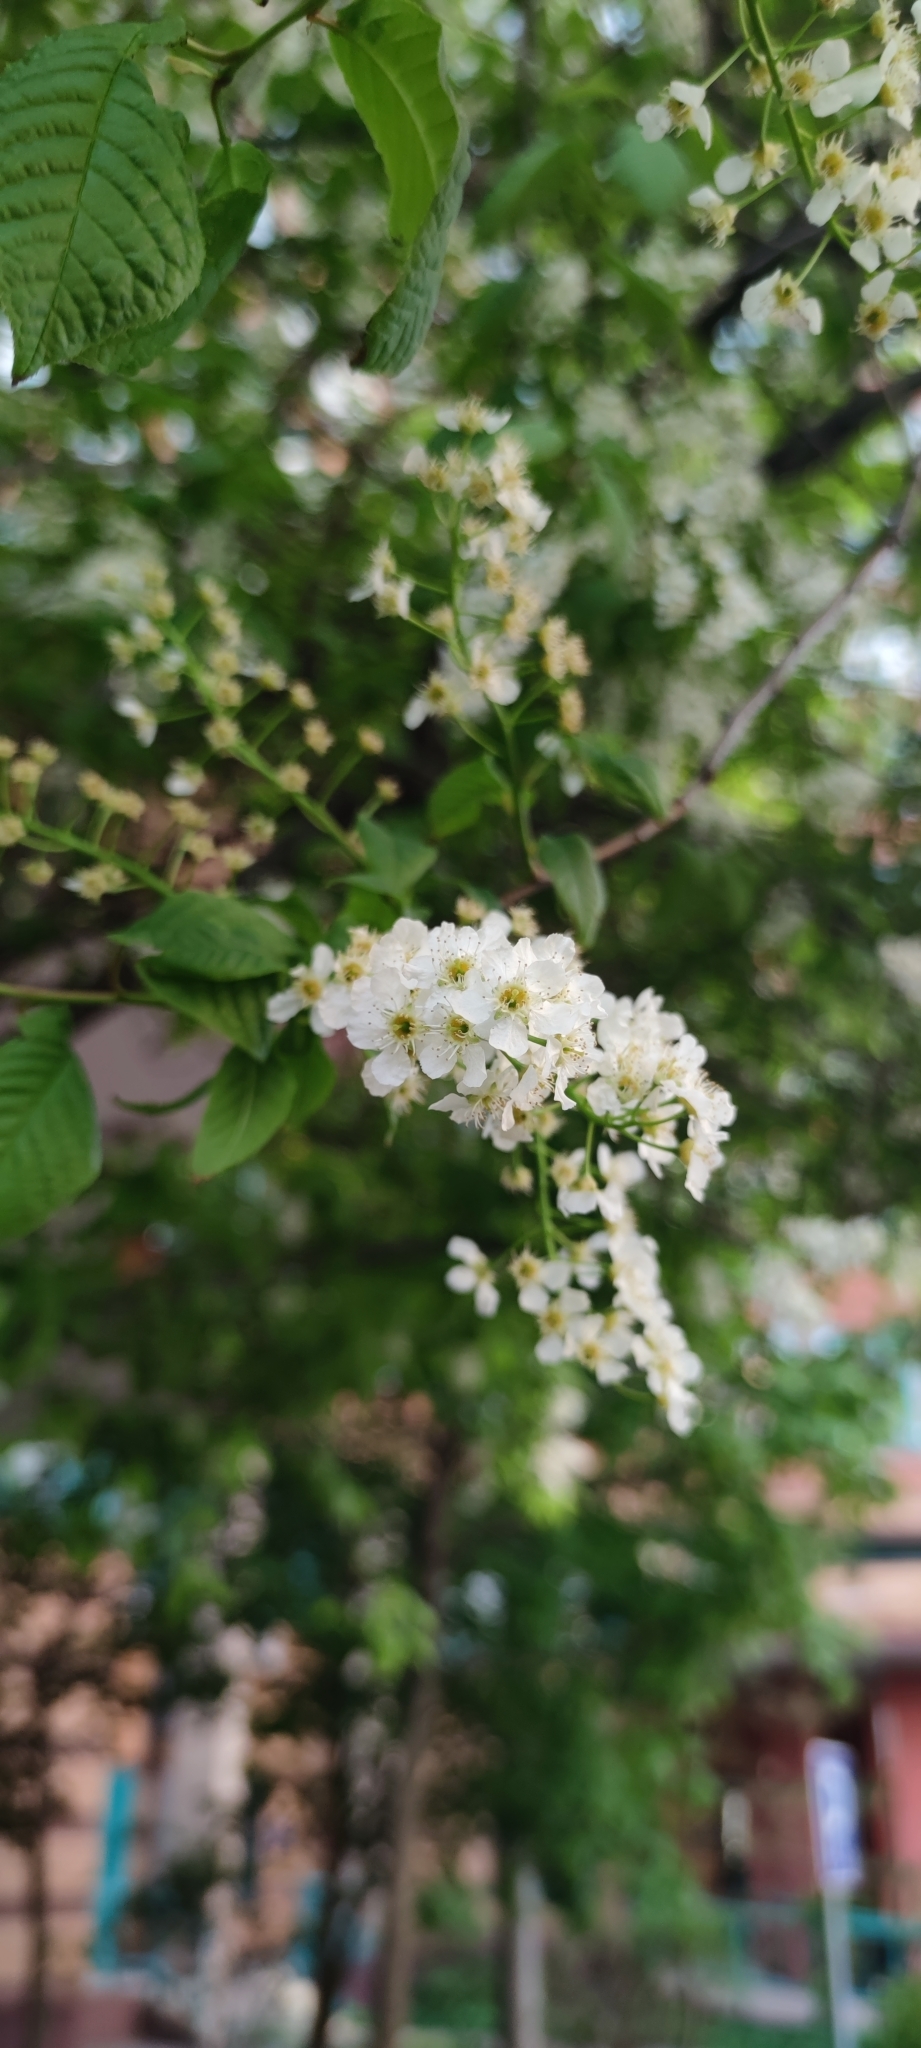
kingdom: Plantae
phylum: Tracheophyta
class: Magnoliopsida
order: Rosales
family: Rosaceae
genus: Prunus
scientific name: Prunus padus
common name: Bird cherry
